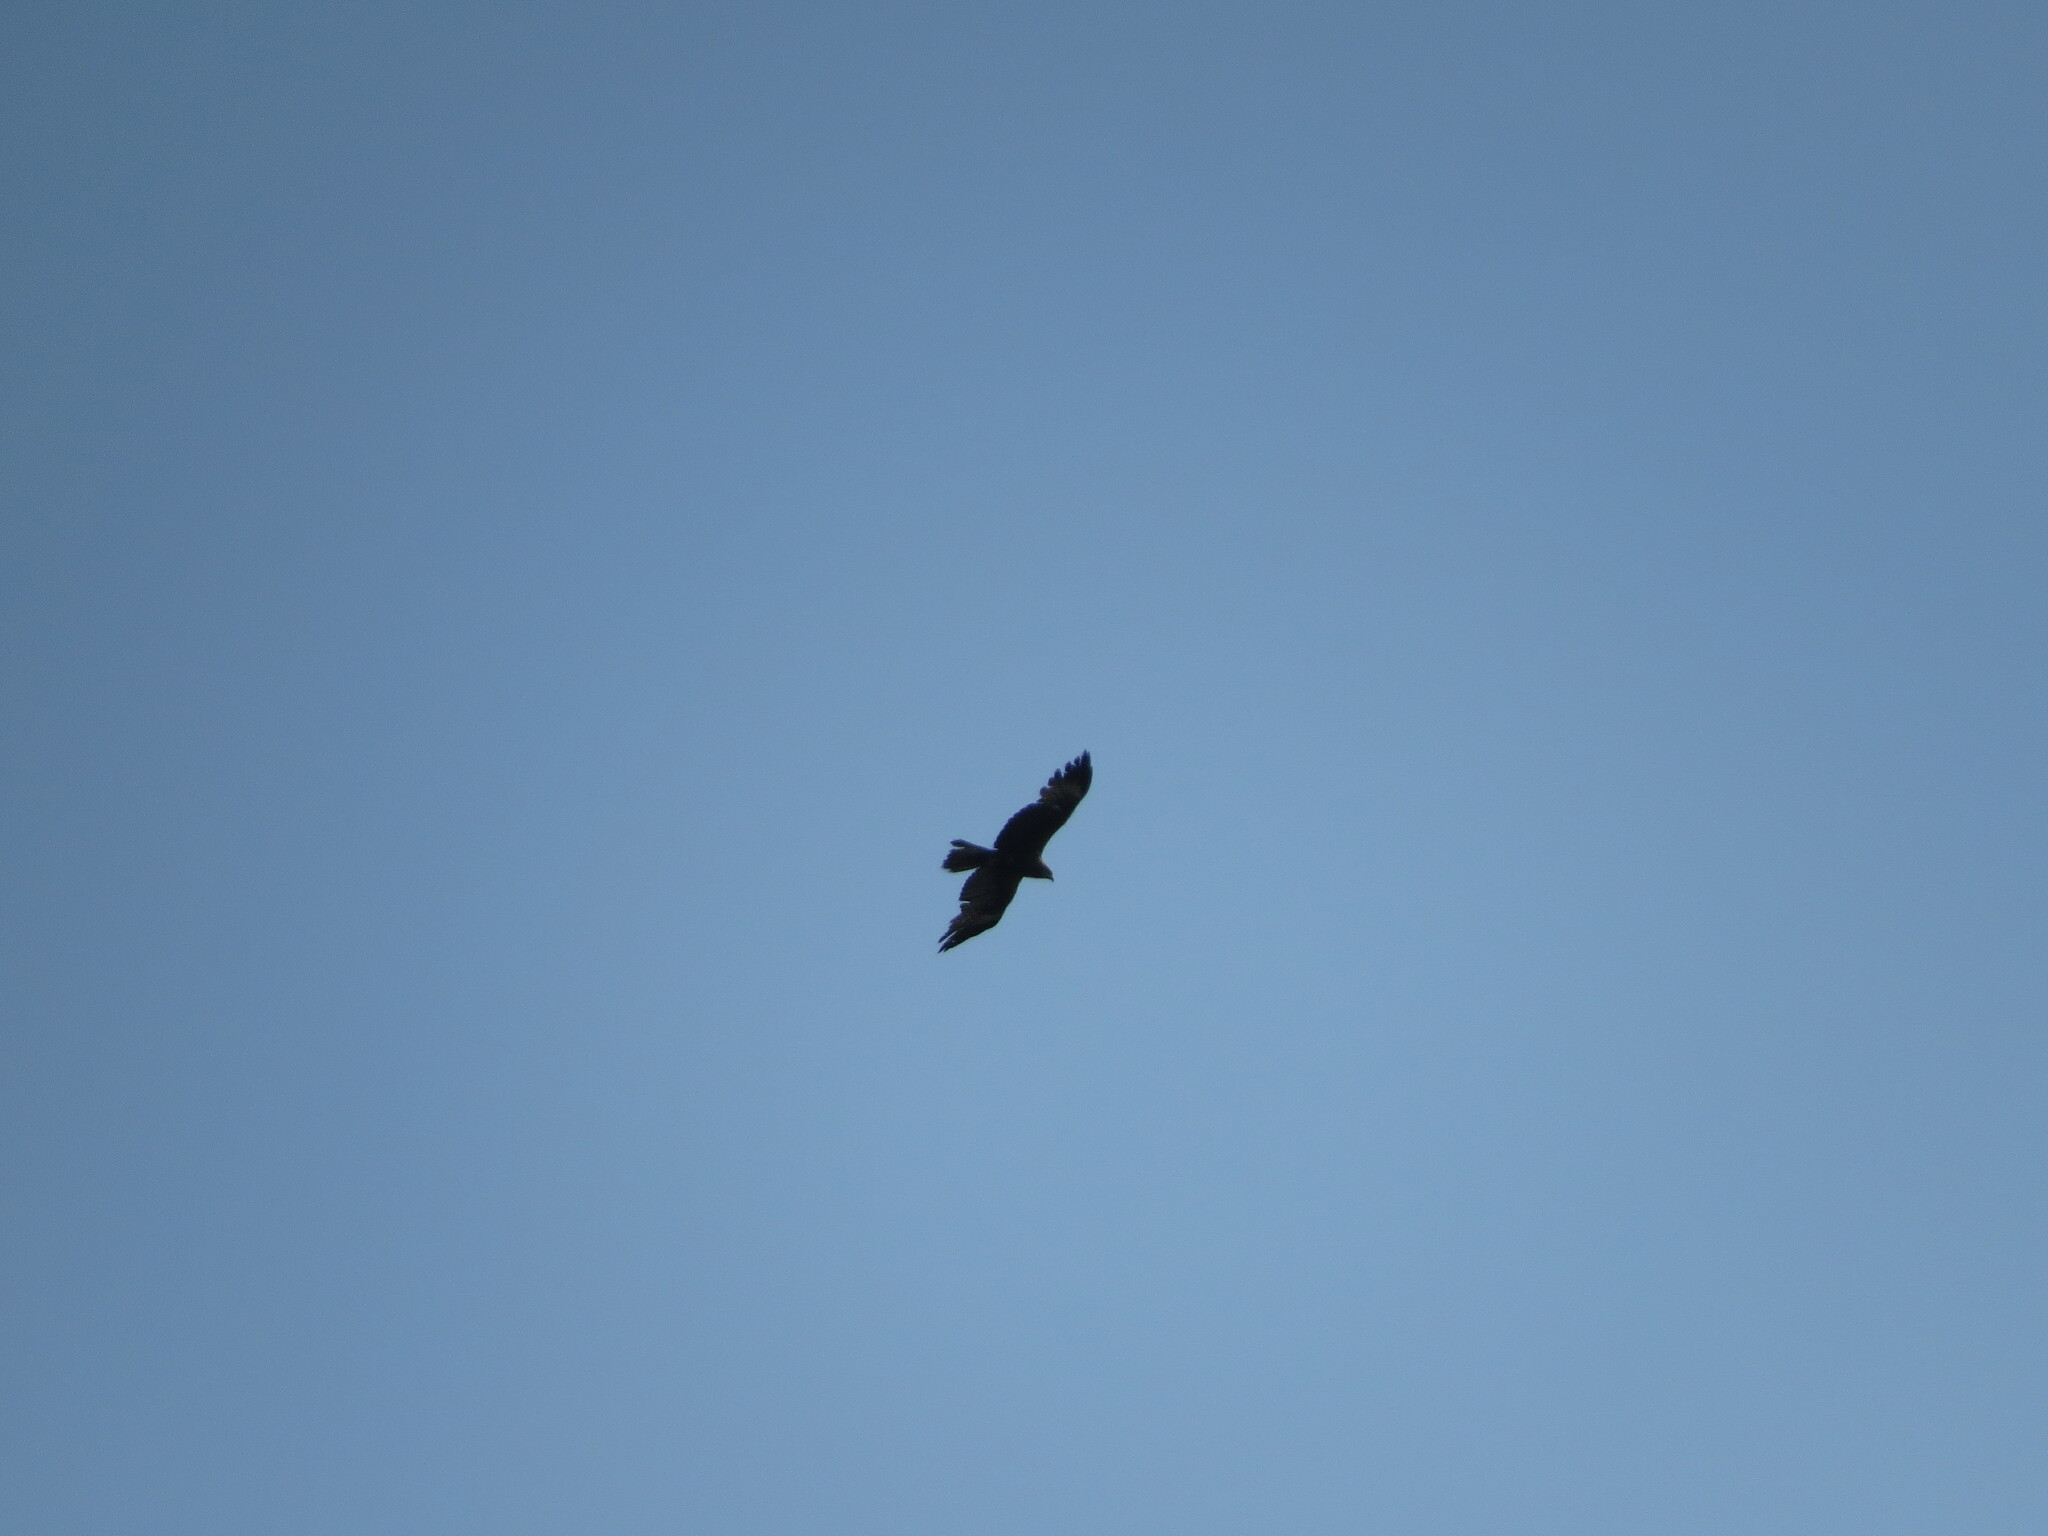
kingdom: Animalia
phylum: Chordata
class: Aves
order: Accipitriformes
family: Accipitridae
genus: Milvus
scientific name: Milvus migrans
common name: Black kite
